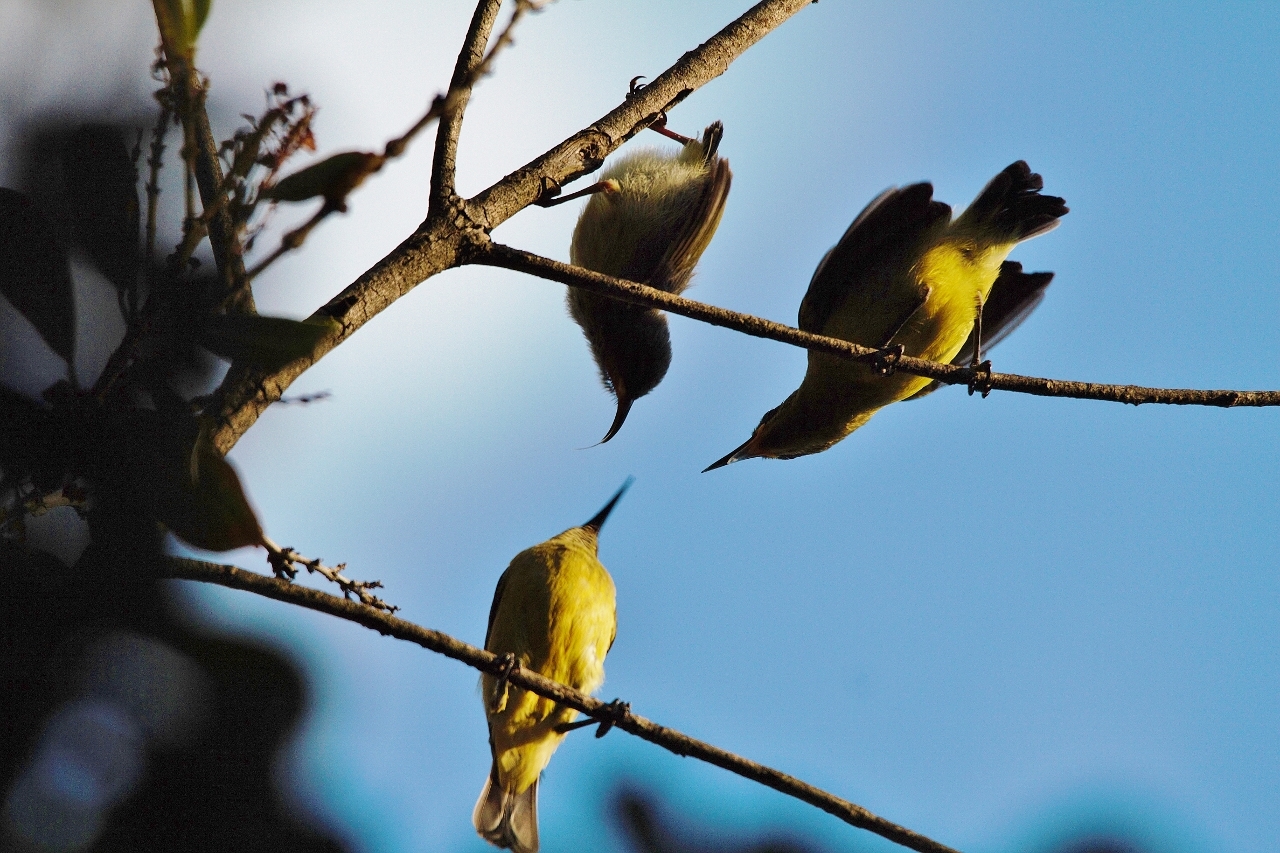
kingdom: Animalia
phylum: Chordata
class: Aves
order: Passeriformes
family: Nectariniidae
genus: Cinnyris
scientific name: Cinnyris venustus
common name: Variable sunbird
